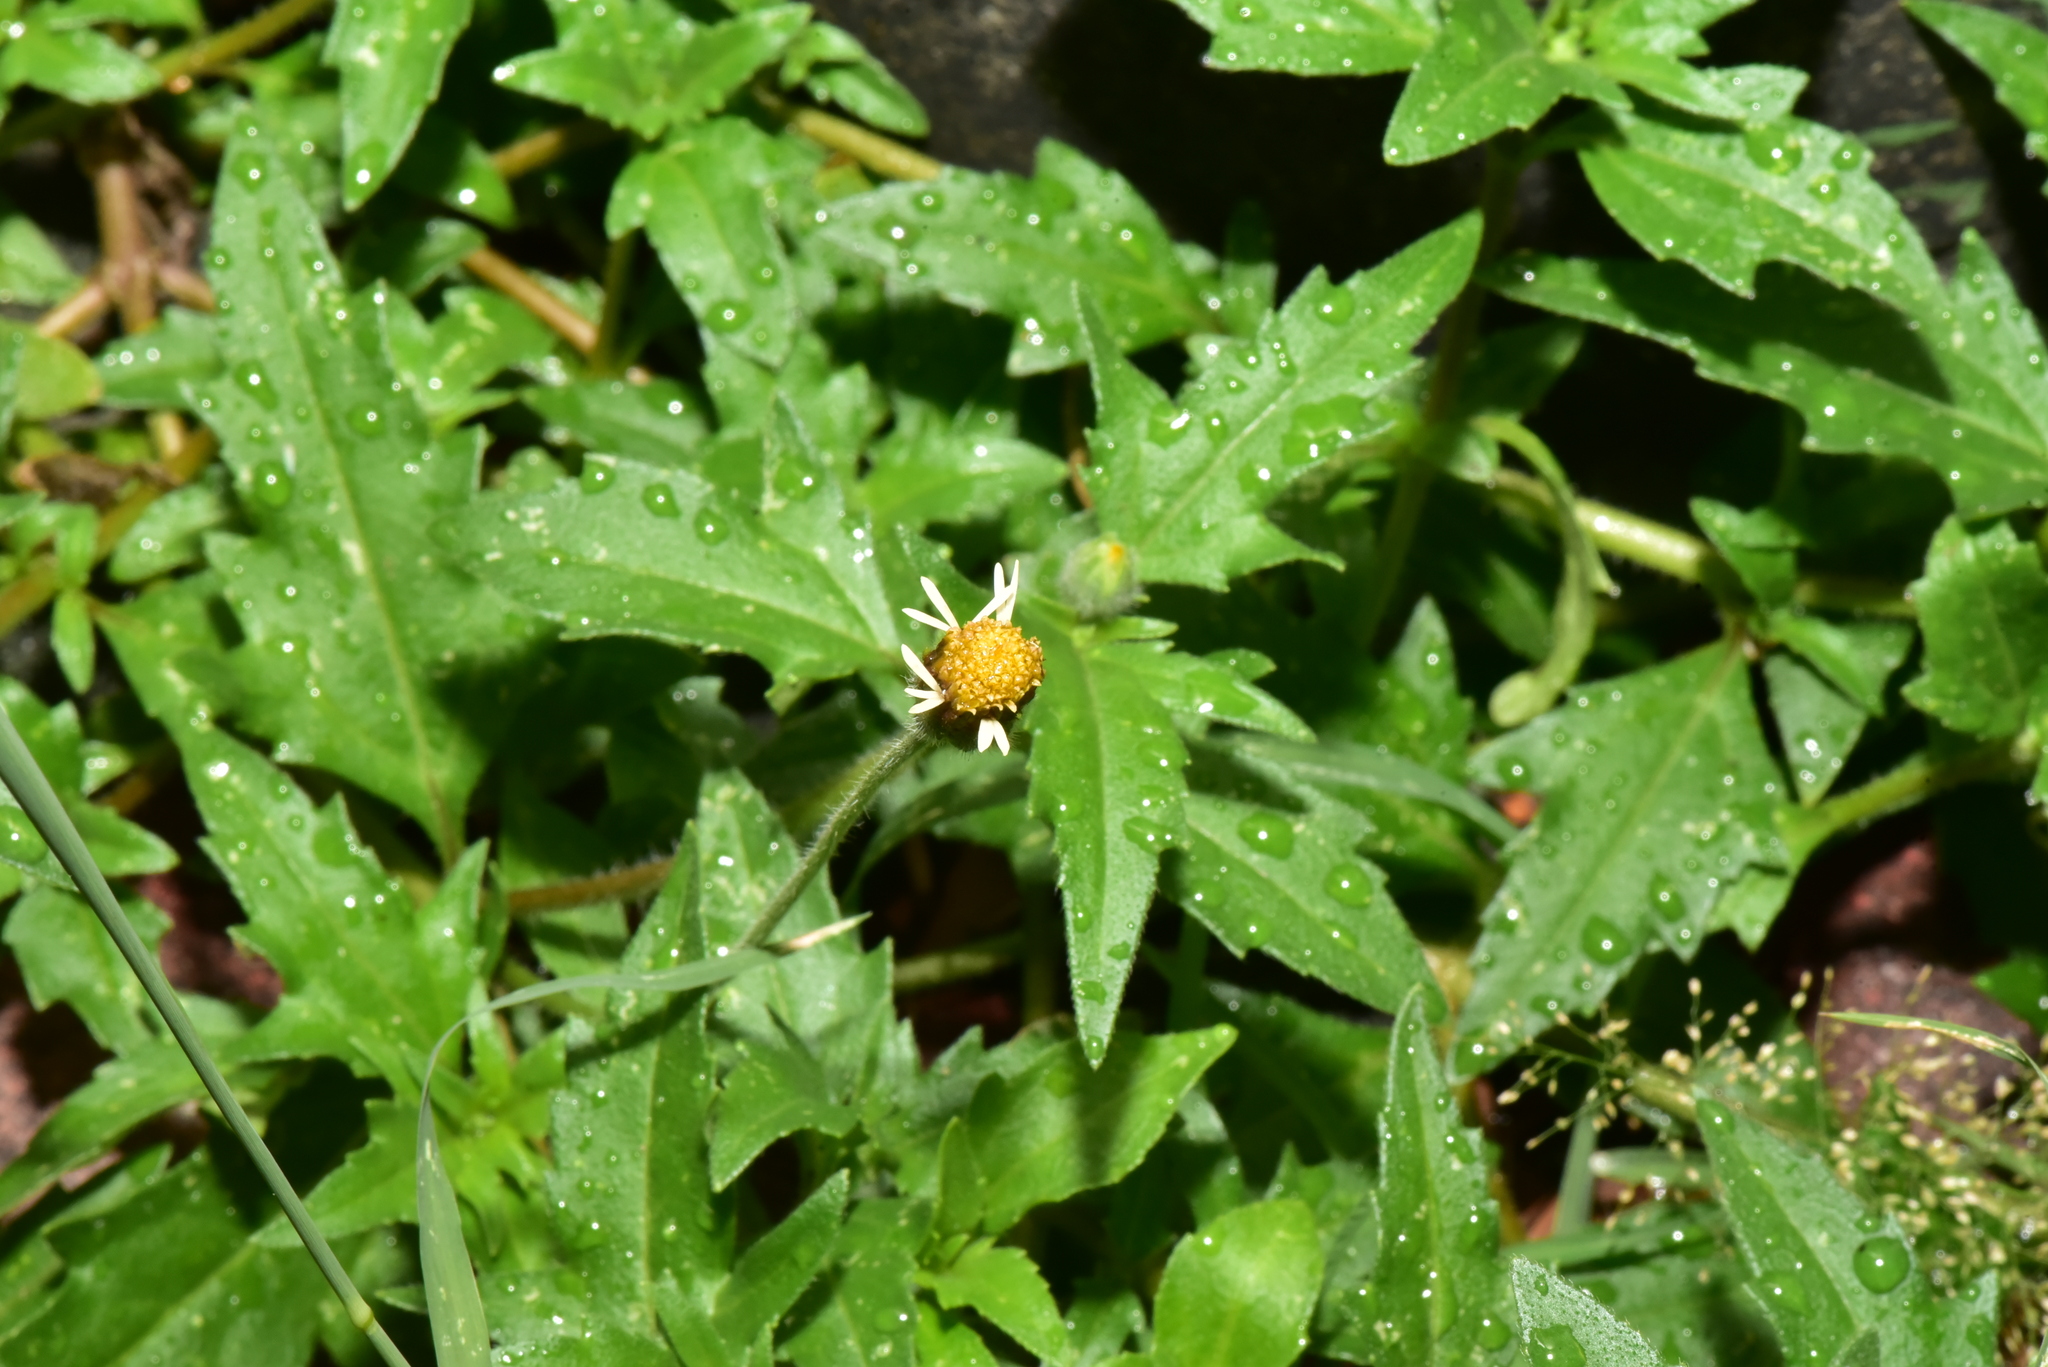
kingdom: Plantae
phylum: Tracheophyta
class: Magnoliopsida
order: Asterales
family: Asteraceae
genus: Tridax
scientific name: Tridax procumbens
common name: Coatbuttons
